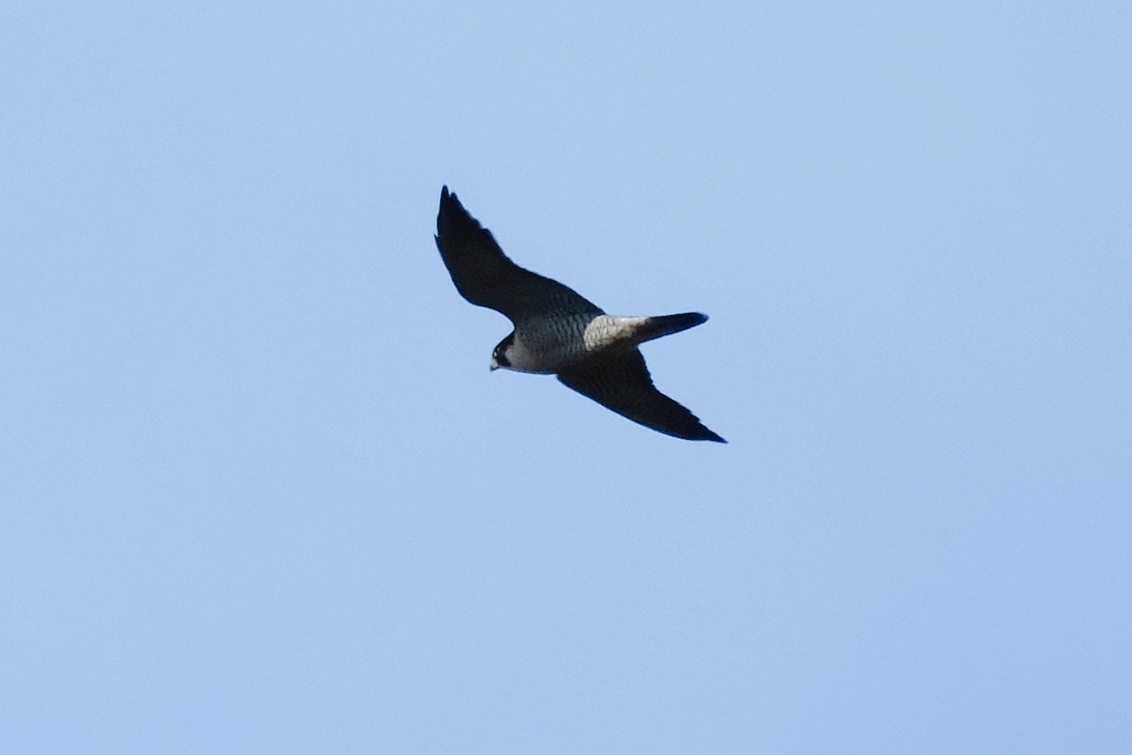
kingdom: Animalia
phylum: Chordata
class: Aves
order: Falconiformes
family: Falconidae
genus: Falco
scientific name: Falco peregrinus
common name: Peregrine falcon
